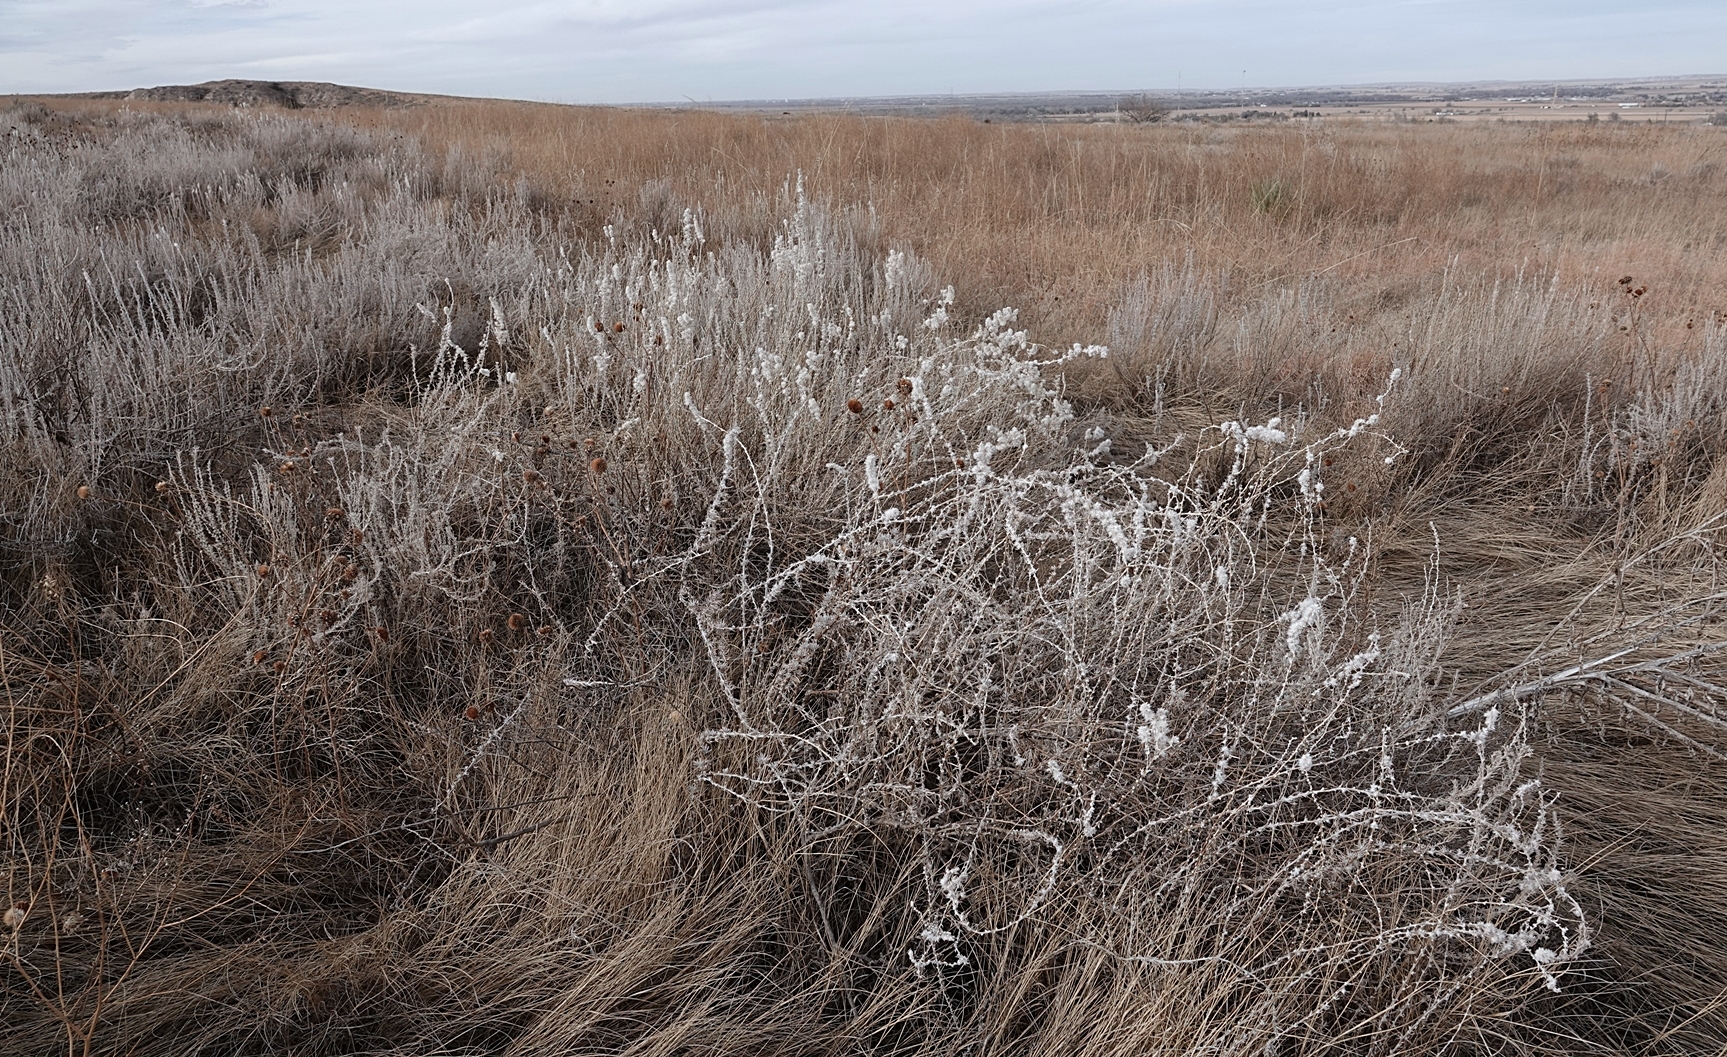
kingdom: Plantae
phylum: Tracheophyta
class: Magnoliopsida
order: Caryophyllales
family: Amaranthaceae
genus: Krascheninnikovia
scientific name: Krascheninnikovia lanata
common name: Winterfat
